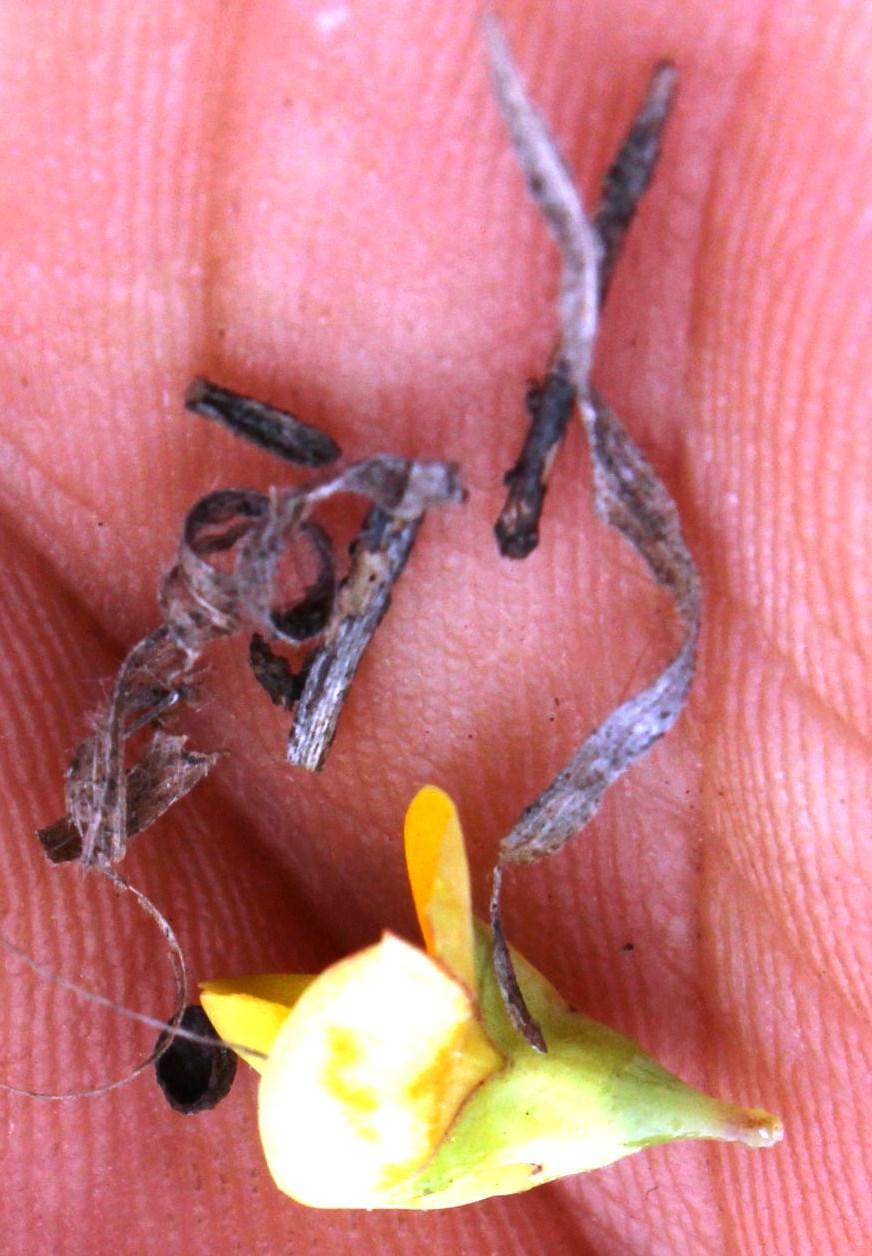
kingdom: Plantae
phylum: Tracheophyta
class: Magnoliopsida
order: Fabales
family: Fabaceae
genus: Rafnia
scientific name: Rafnia acuminata
